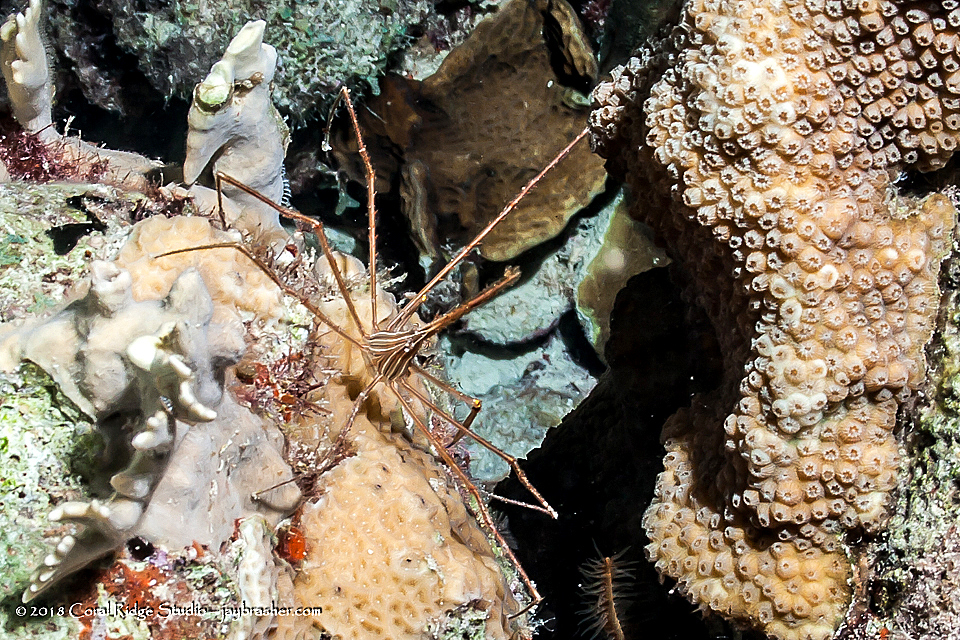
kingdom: Animalia
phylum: Arthropoda
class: Malacostraca
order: Decapoda
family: Inachoididae
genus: Stenorhynchus
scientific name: Stenorhynchus seticornis
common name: Arrow crab
